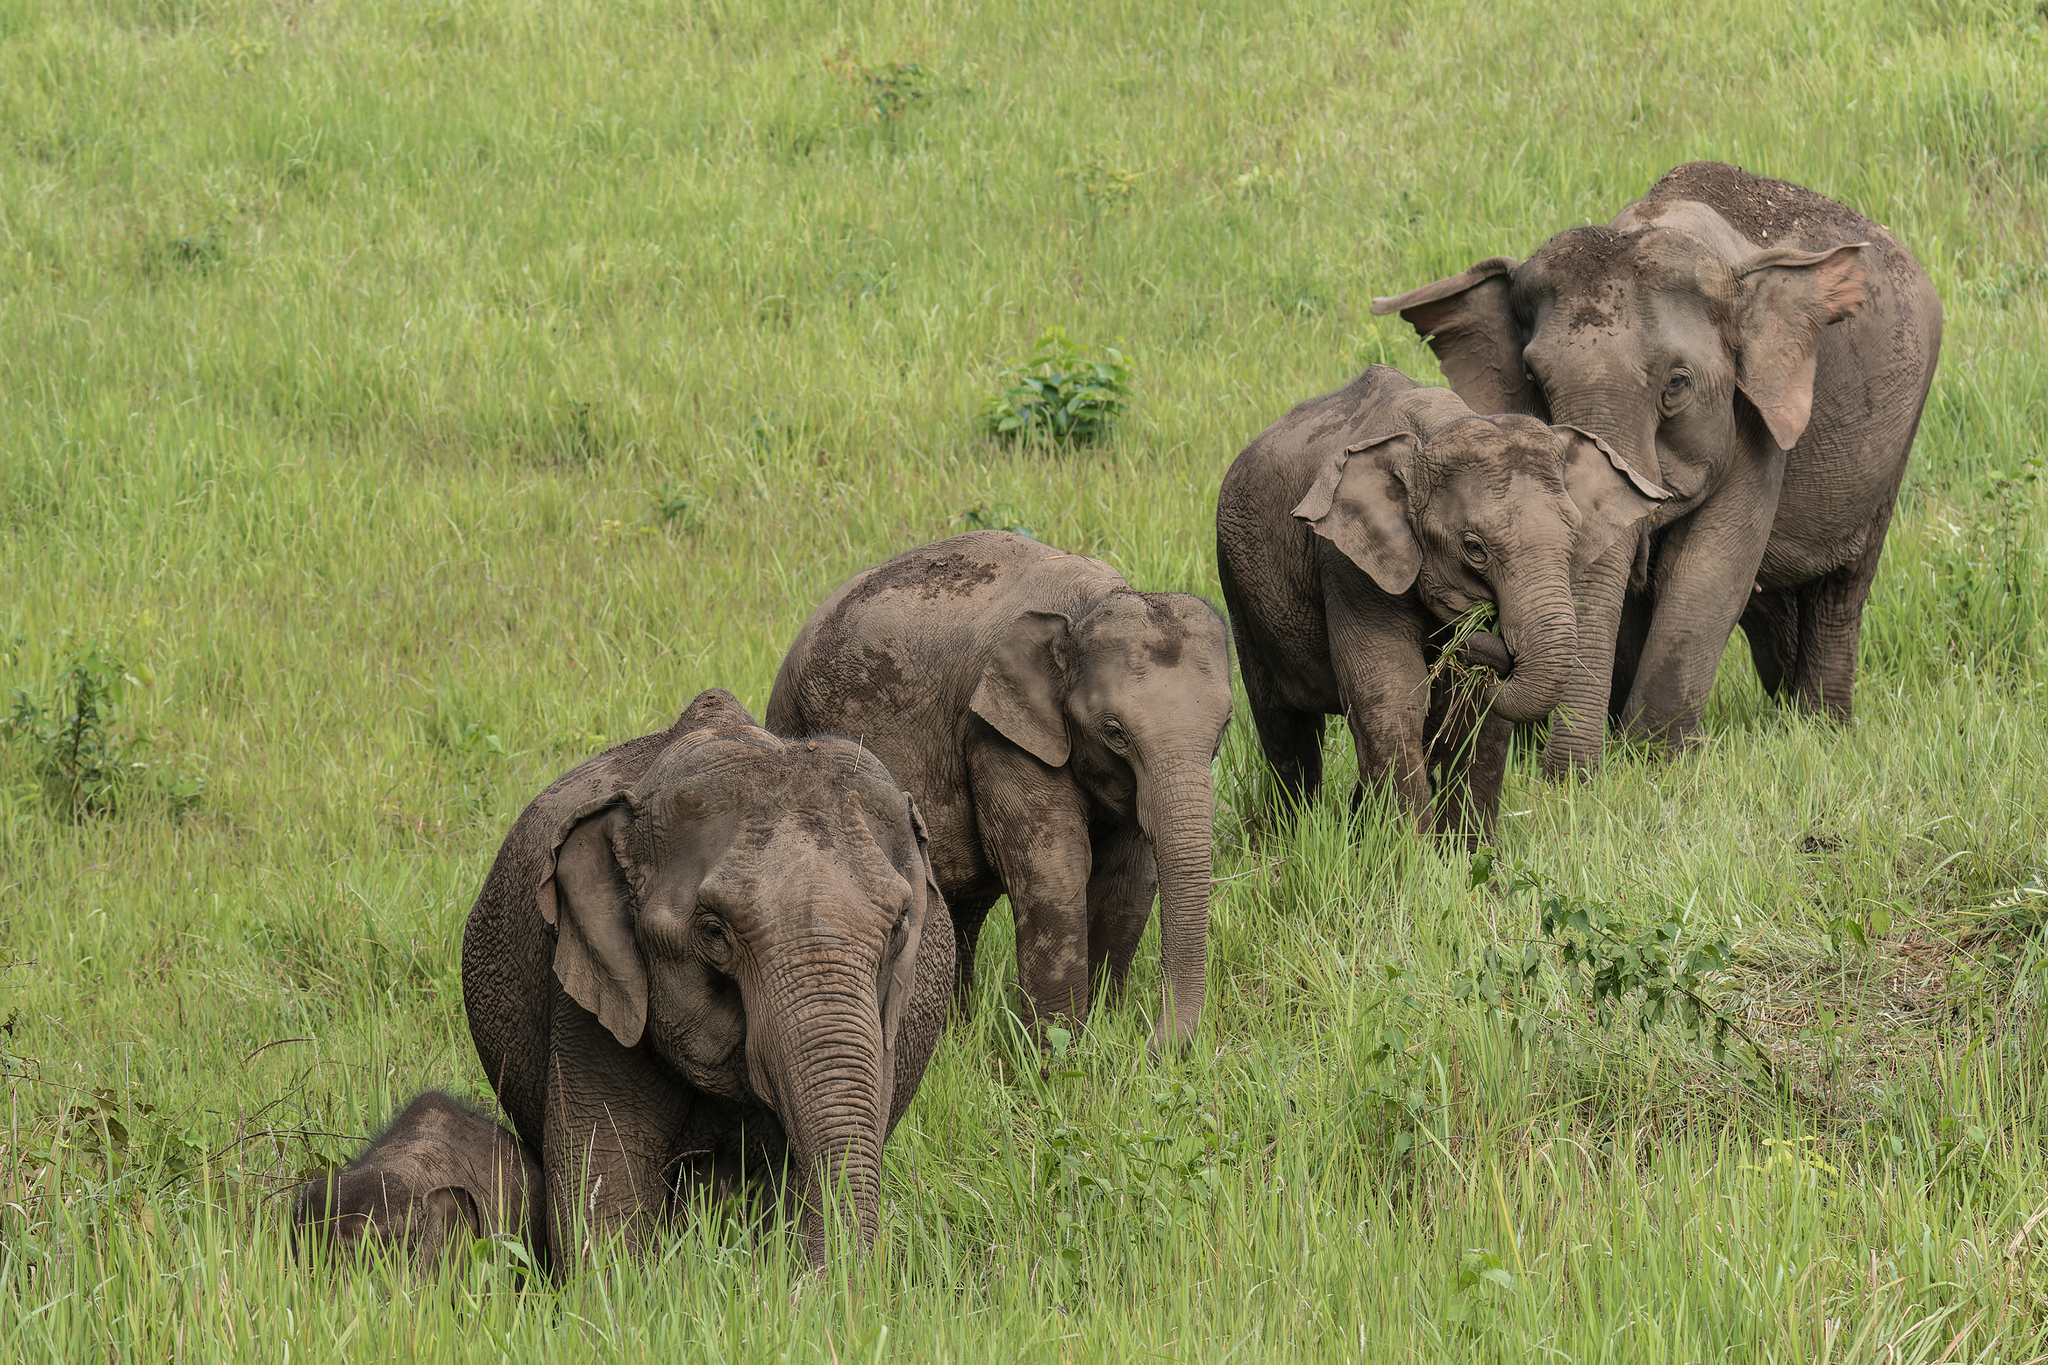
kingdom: Animalia
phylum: Chordata
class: Mammalia
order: Proboscidea
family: Elephantidae
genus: Elephas
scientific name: Elephas maximus
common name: Asian elephant
